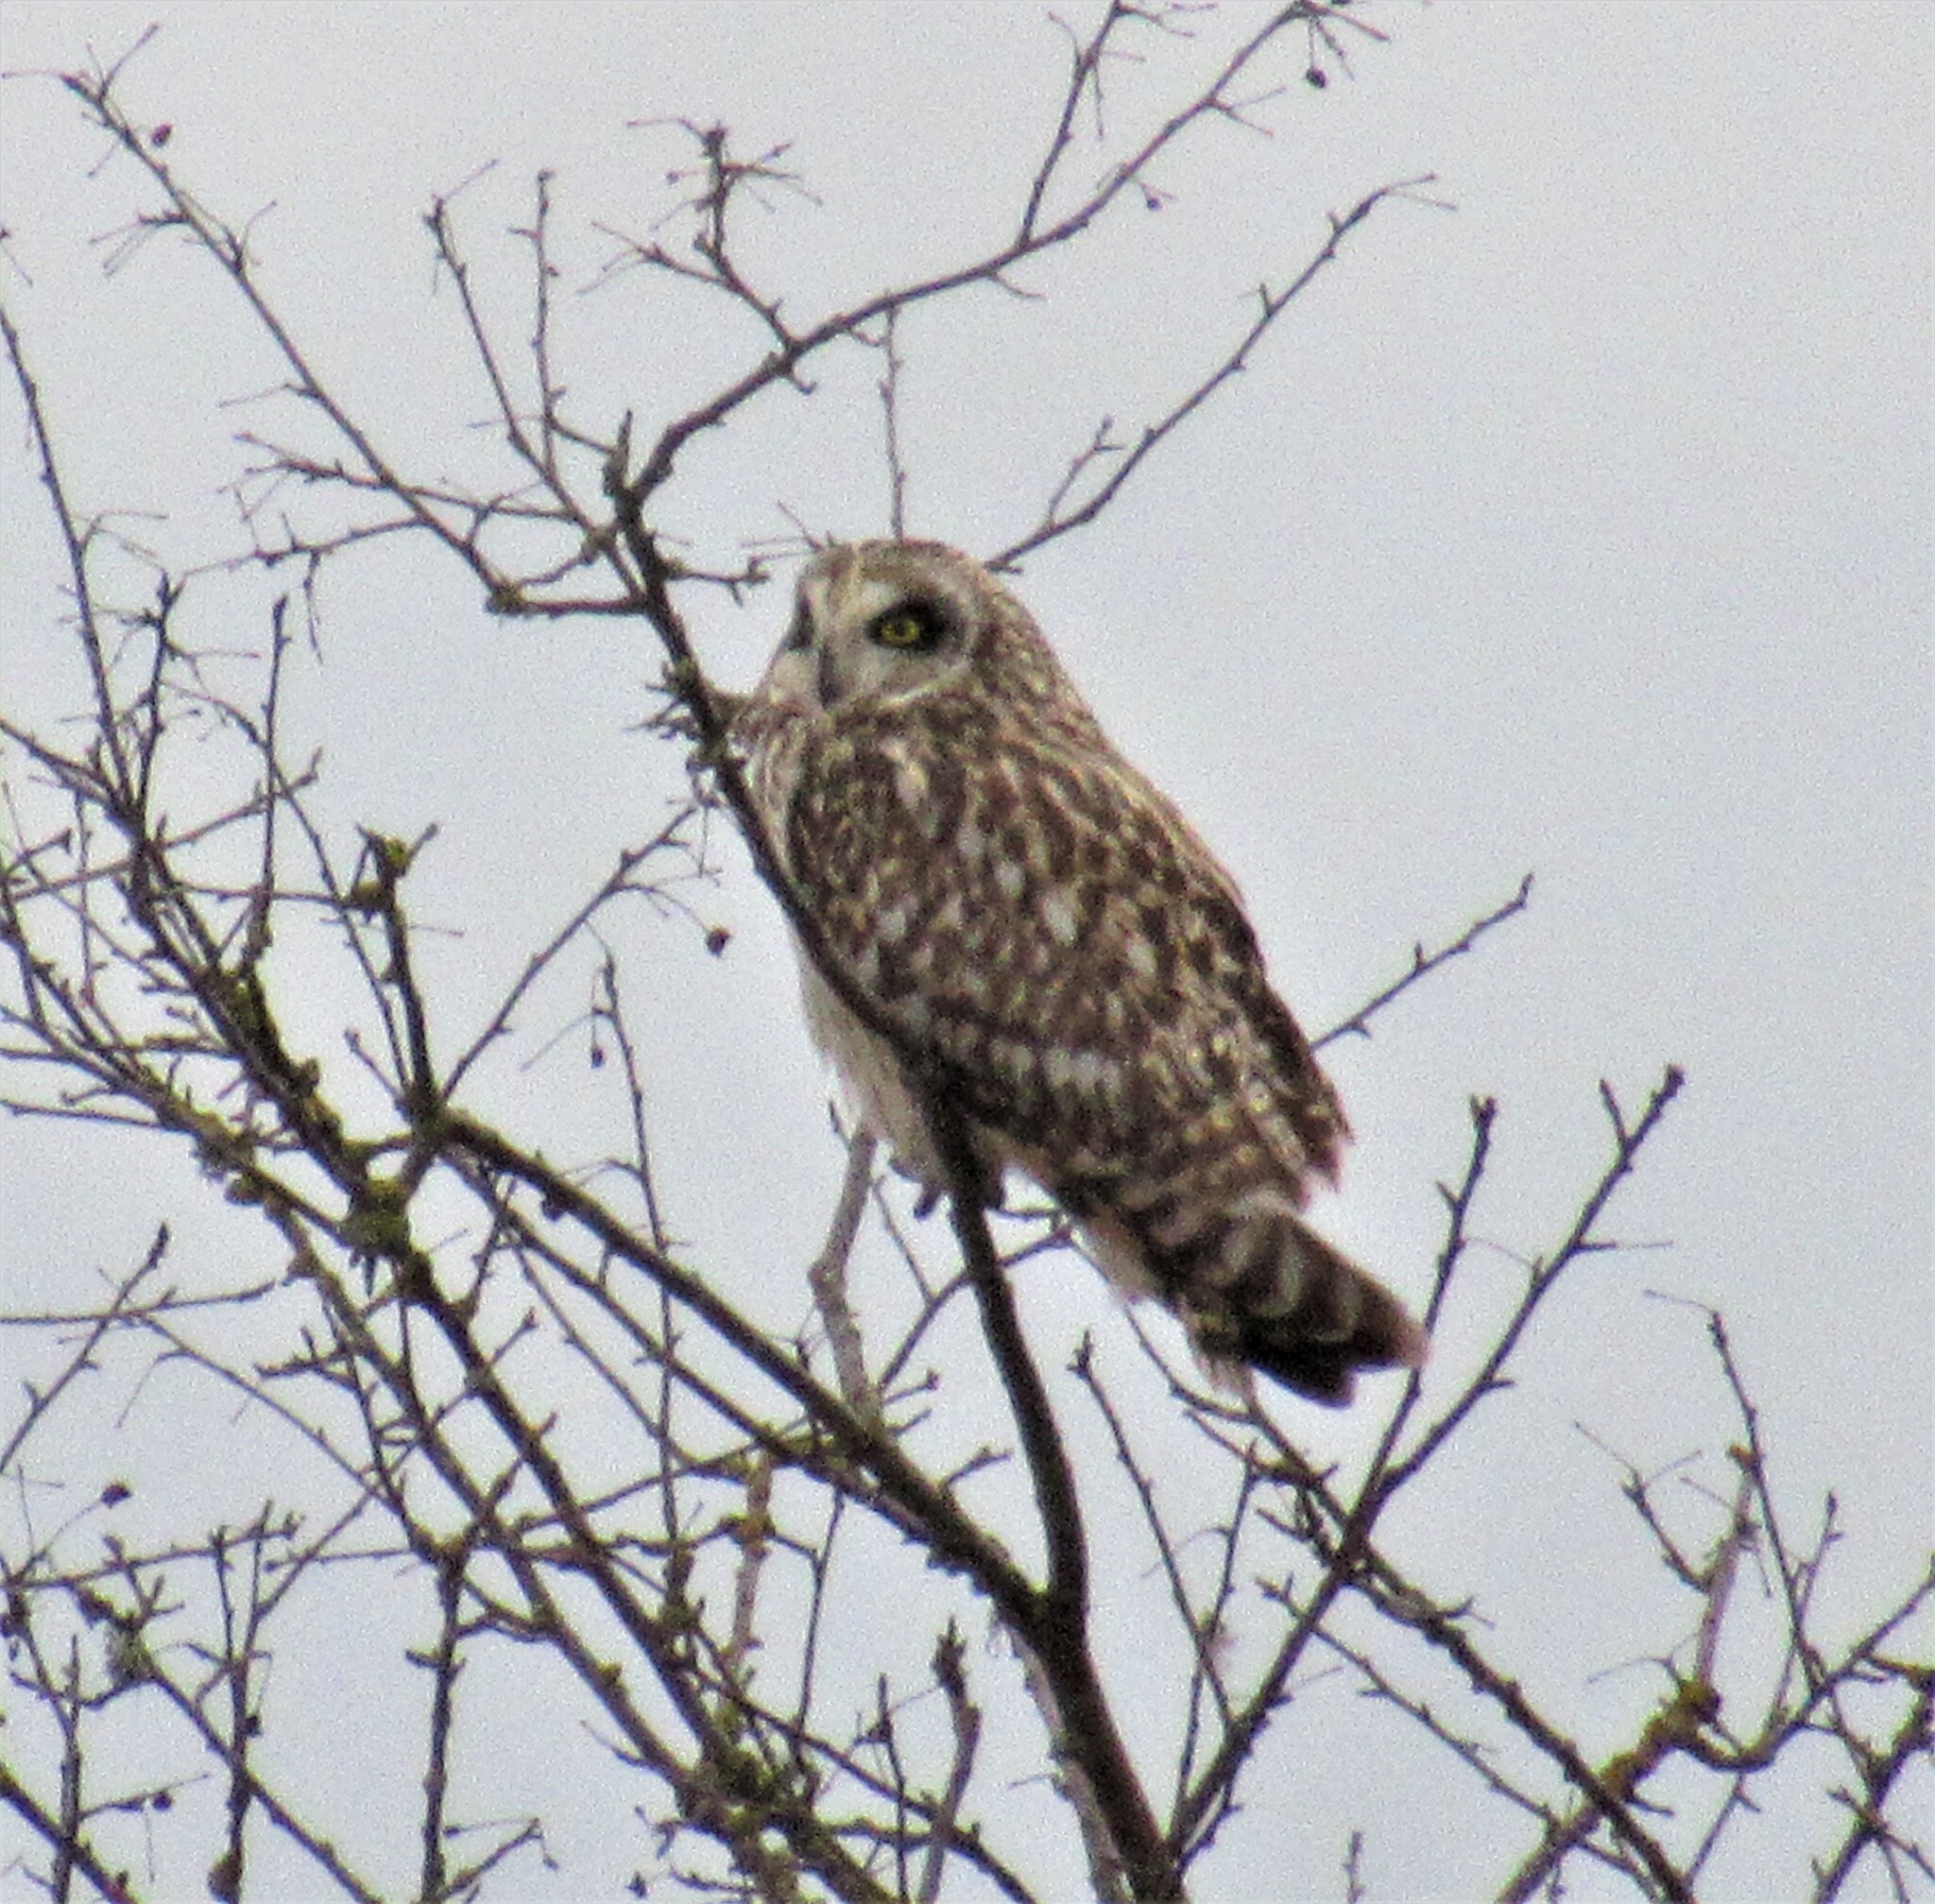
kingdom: Animalia
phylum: Chordata
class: Aves
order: Strigiformes
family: Strigidae
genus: Asio
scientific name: Asio flammeus
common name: Short-eared owl
